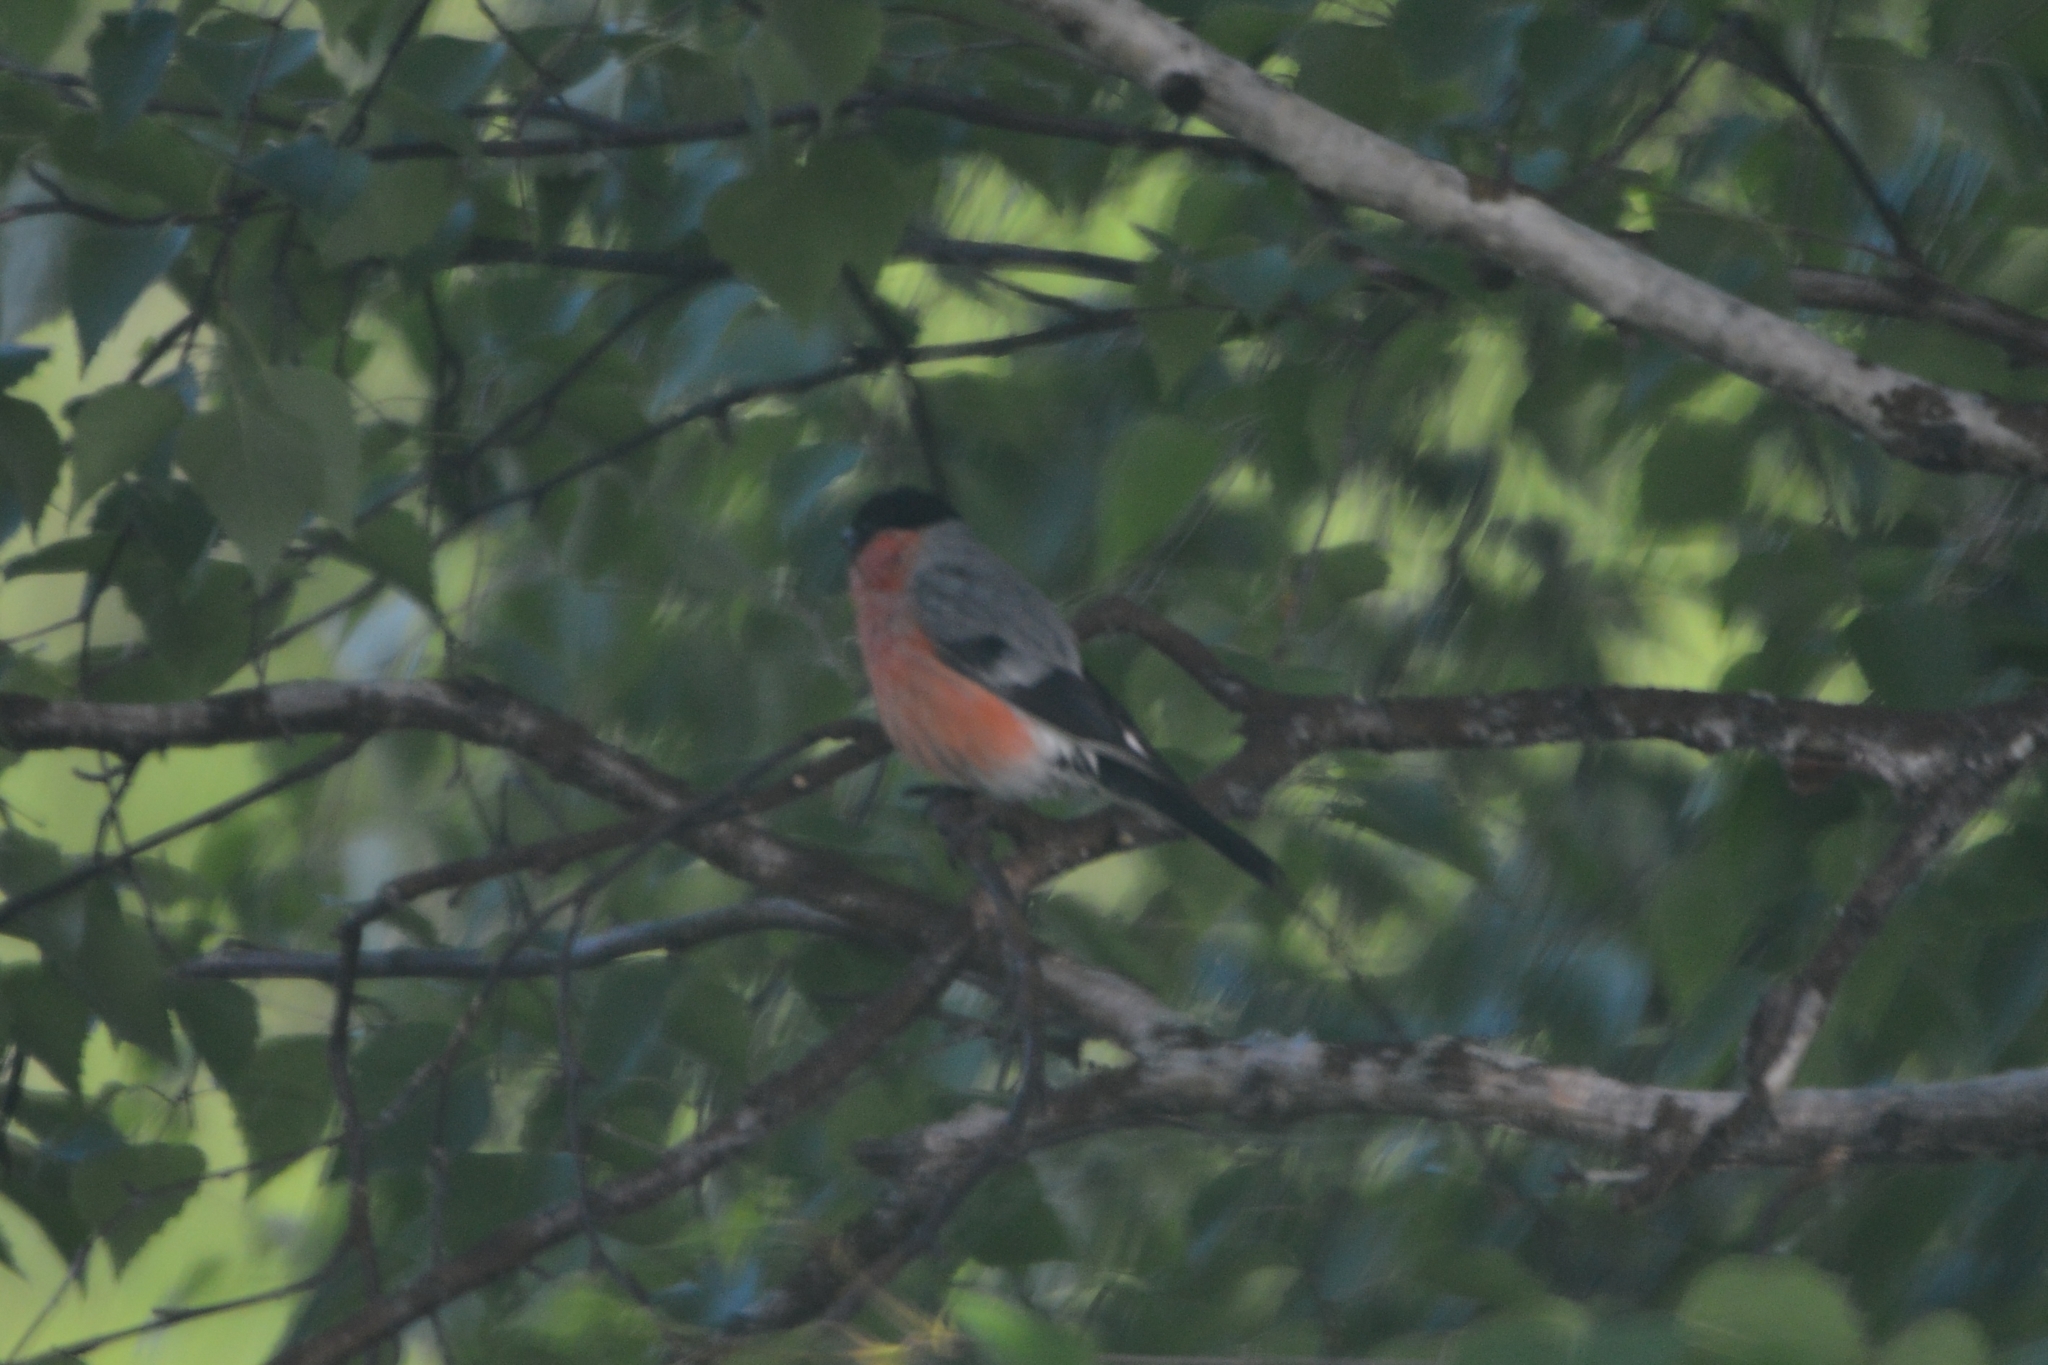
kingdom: Animalia
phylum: Chordata
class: Aves
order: Passeriformes
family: Fringillidae
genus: Pyrrhula
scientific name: Pyrrhula pyrrhula
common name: Eurasian bullfinch
